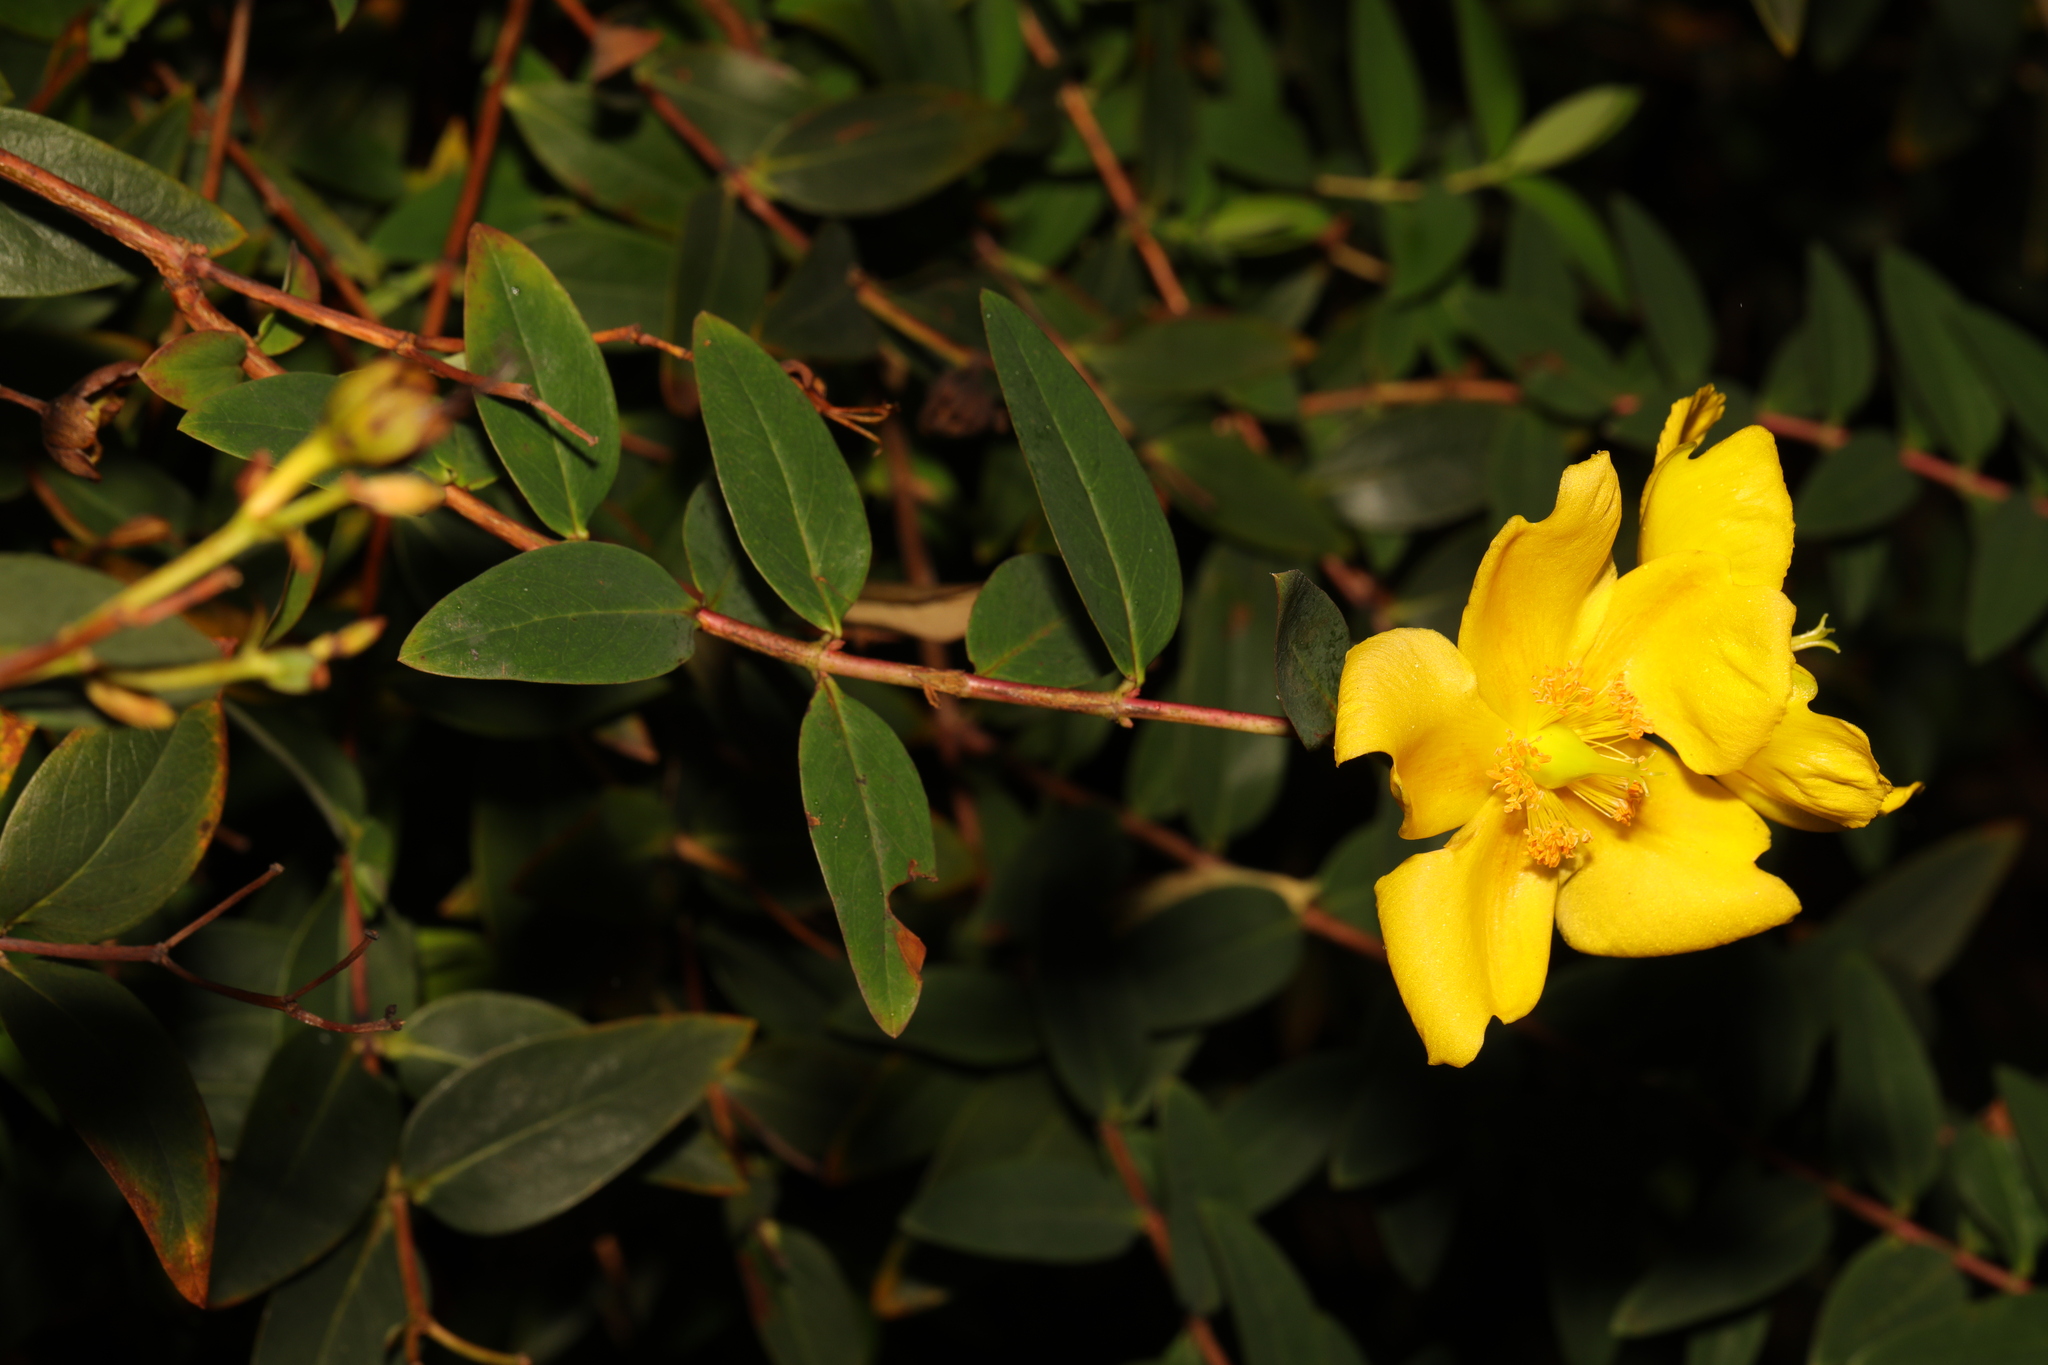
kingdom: Plantae
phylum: Tracheophyta
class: Magnoliopsida
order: Malpighiales
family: Hypericaceae
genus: Hypericum
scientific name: Hypericum calycinum
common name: Rose-of-sharon
